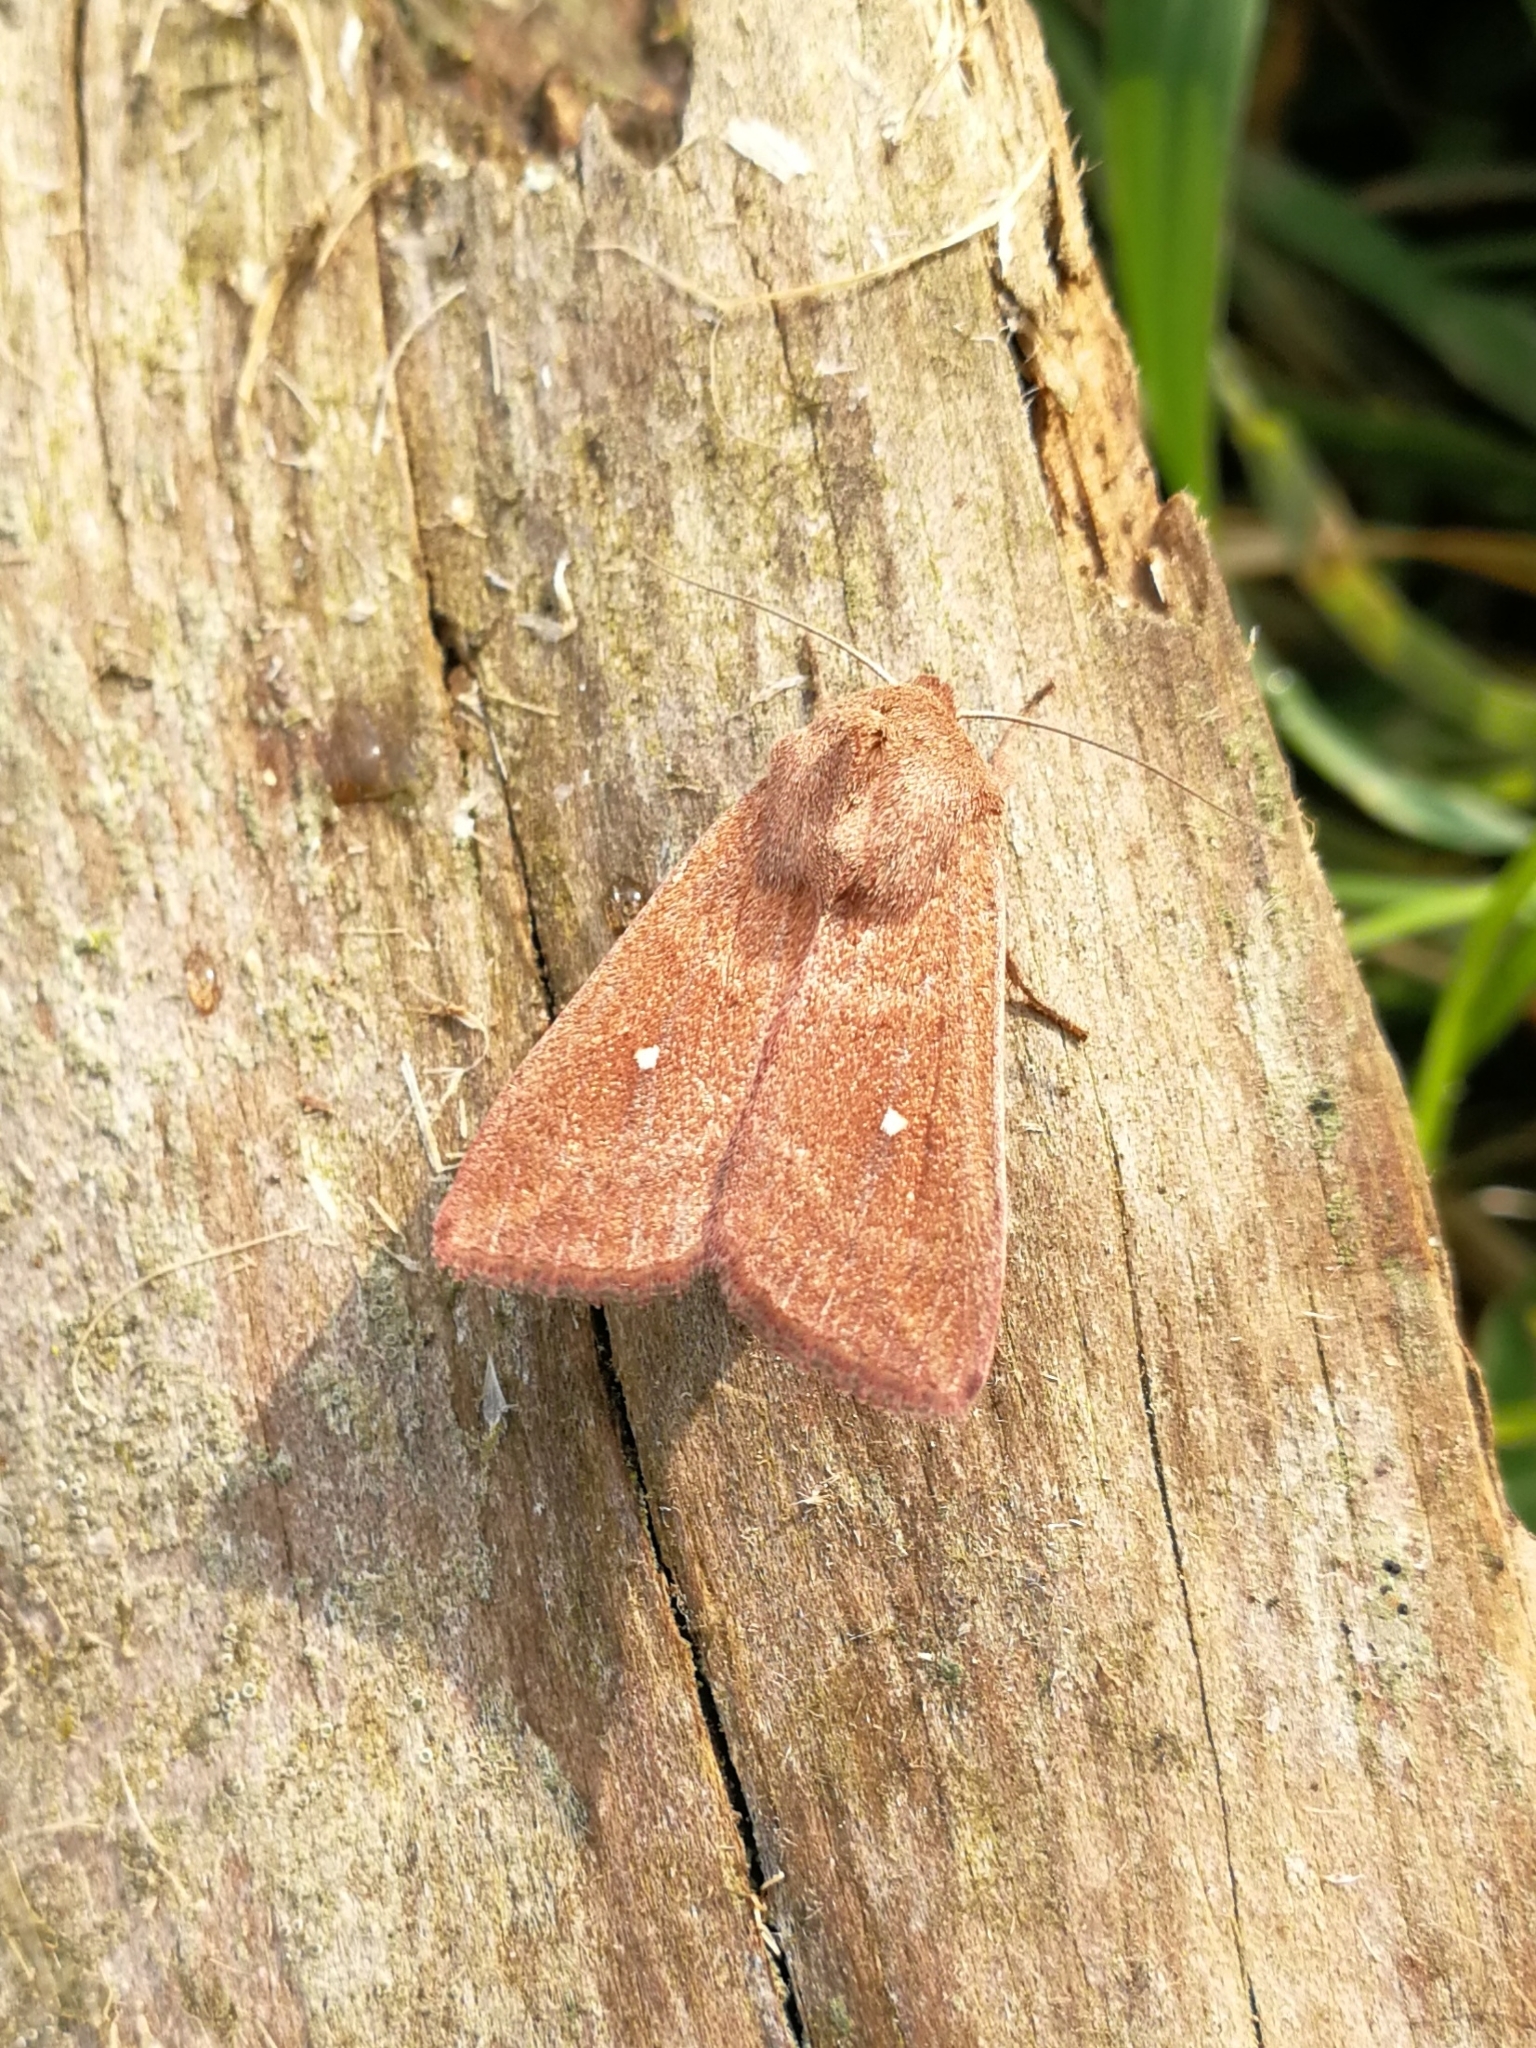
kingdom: Animalia
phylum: Arthropoda
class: Insecta
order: Lepidoptera
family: Noctuidae
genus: Mythimna
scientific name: Mythimna albipuncta
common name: White-point
